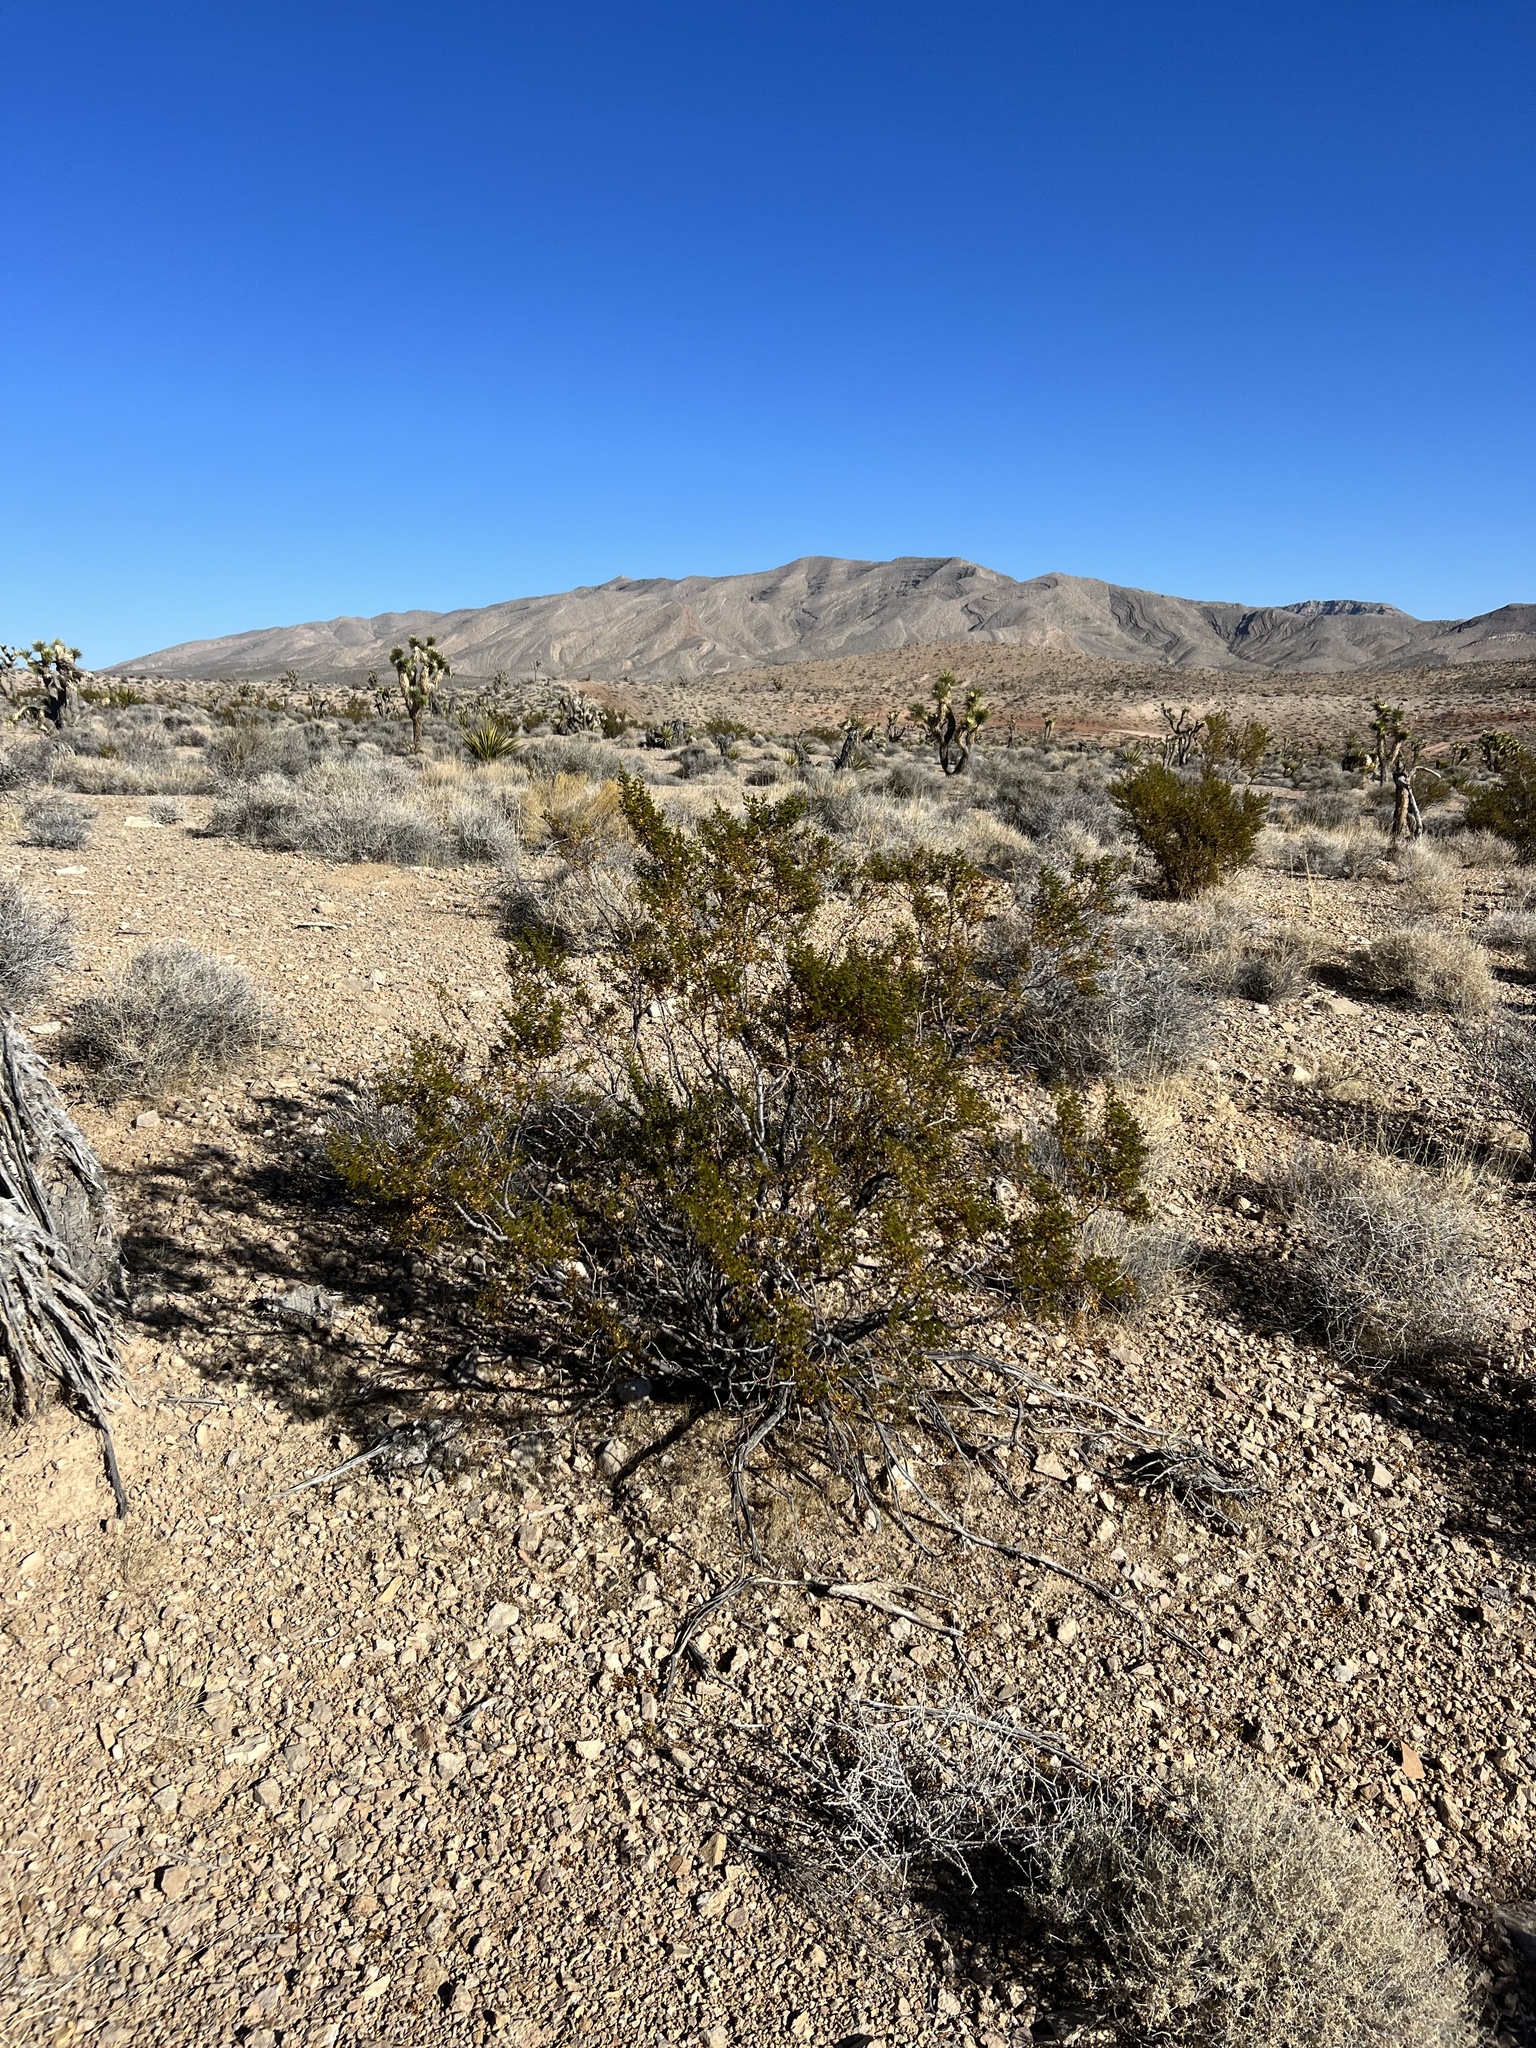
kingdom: Plantae
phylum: Tracheophyta
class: Magnoliopsida
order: Zygophyllales
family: Zygophyllaceae
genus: Larrea
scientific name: Larrea tridentata
